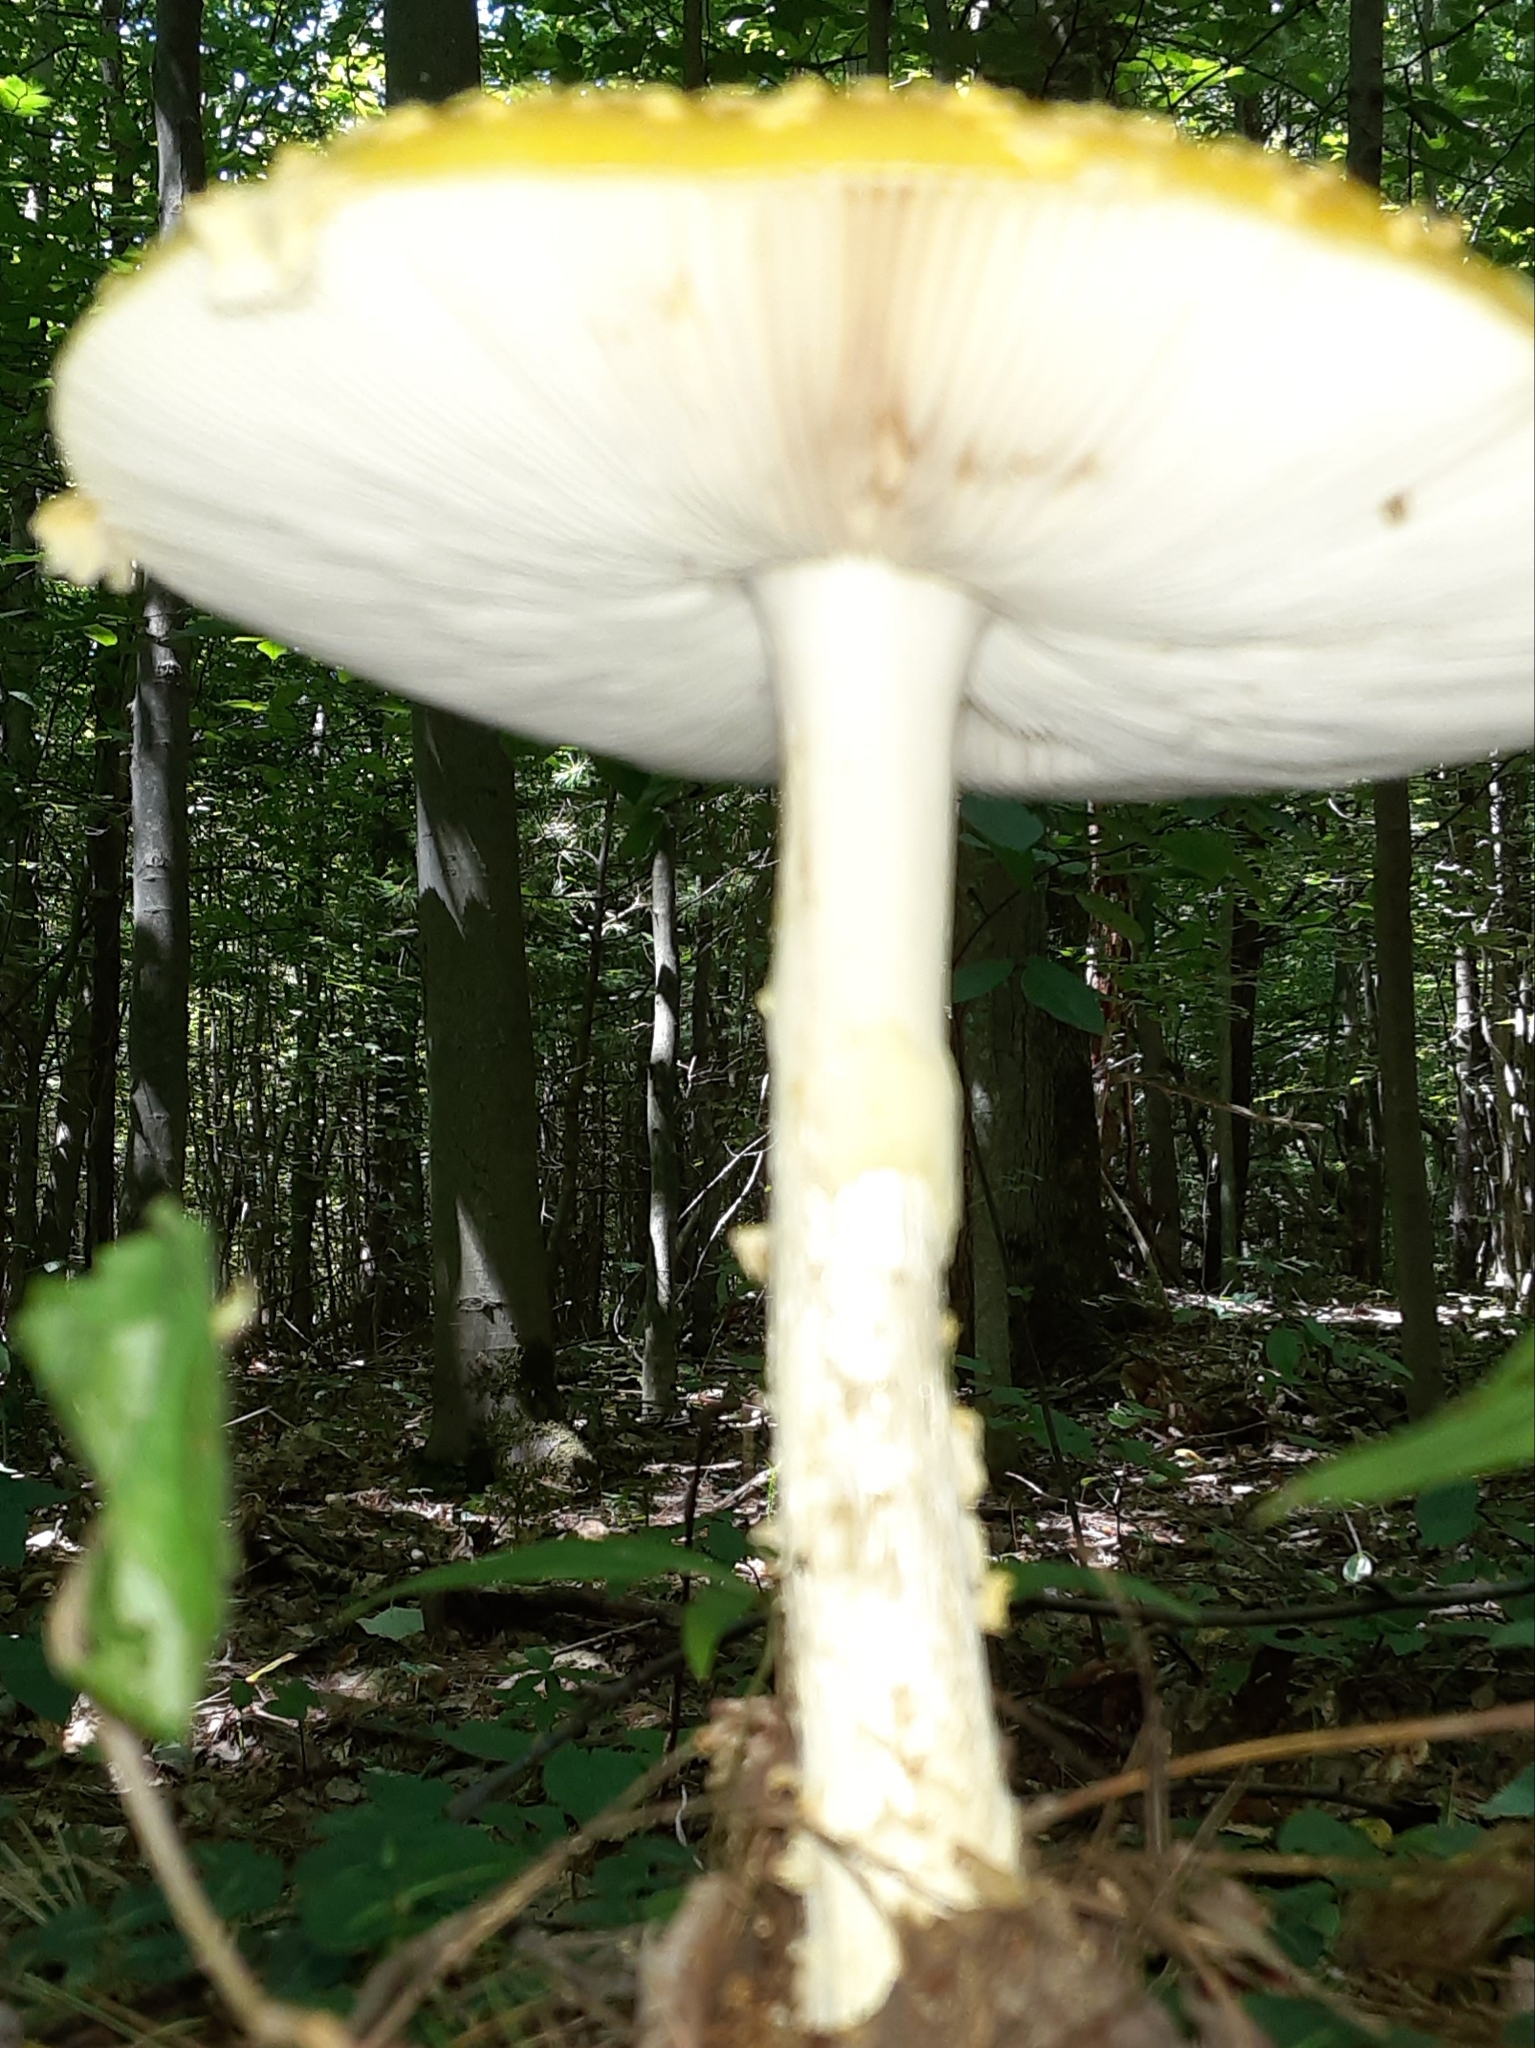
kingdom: Fungi
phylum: Basidiomycota
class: Agaricomycetes
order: Agaricales
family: Amanitaceae
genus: Amanita
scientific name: Amanita muscaria
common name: Fly agaric
